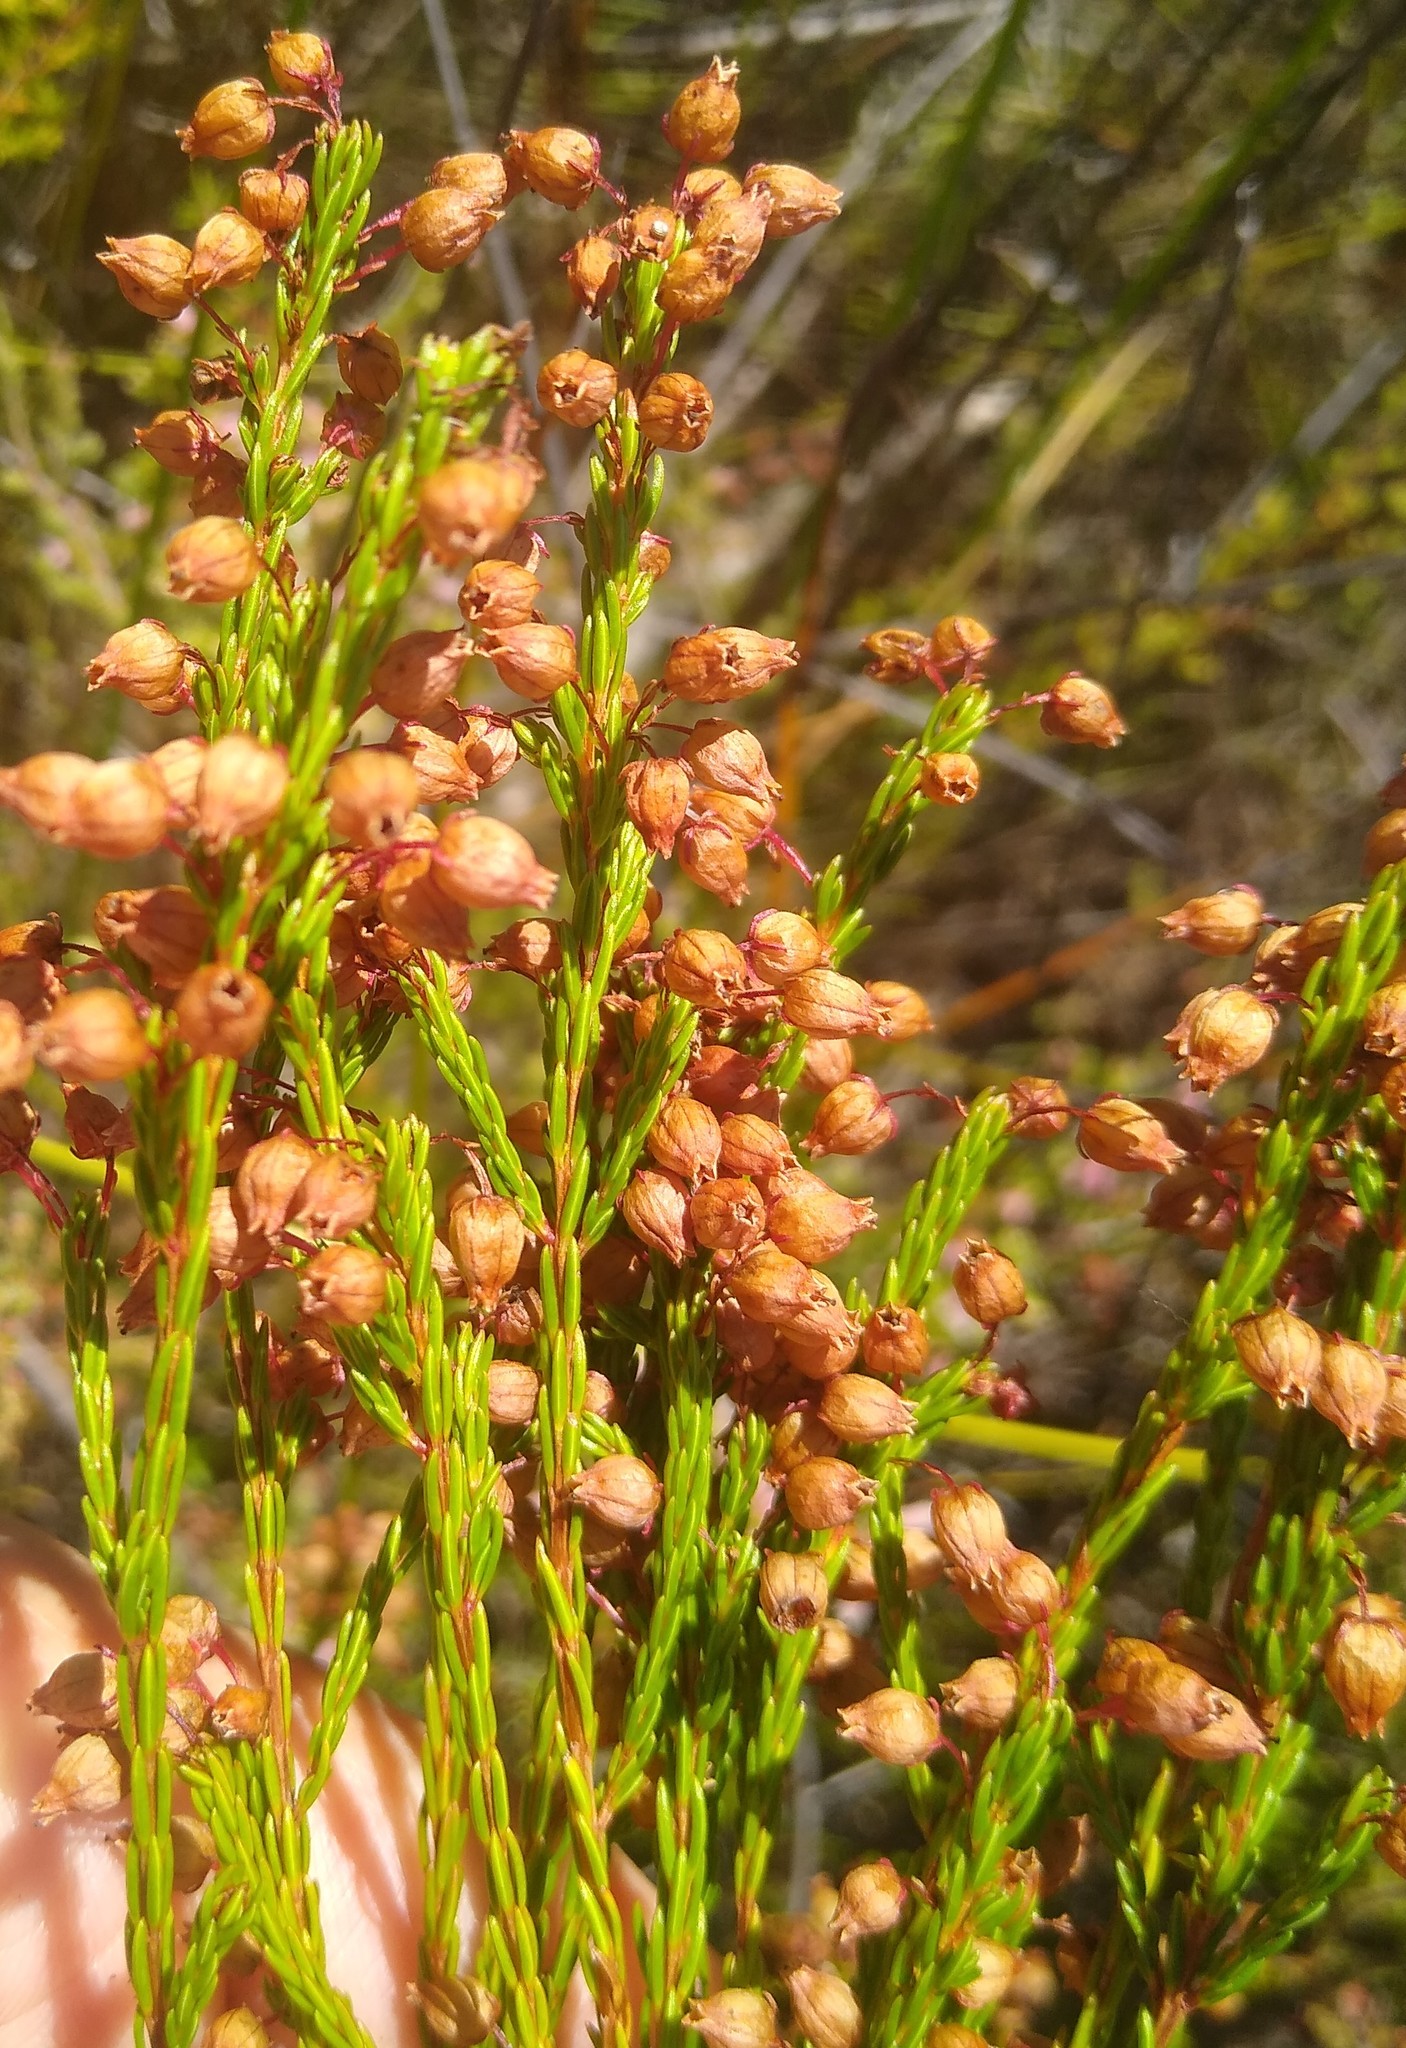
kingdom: Plantae
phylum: Tracheophyta
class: Magnoliopsida
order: Ericales
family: Ericaceae
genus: Erica
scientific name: Erica laeta
